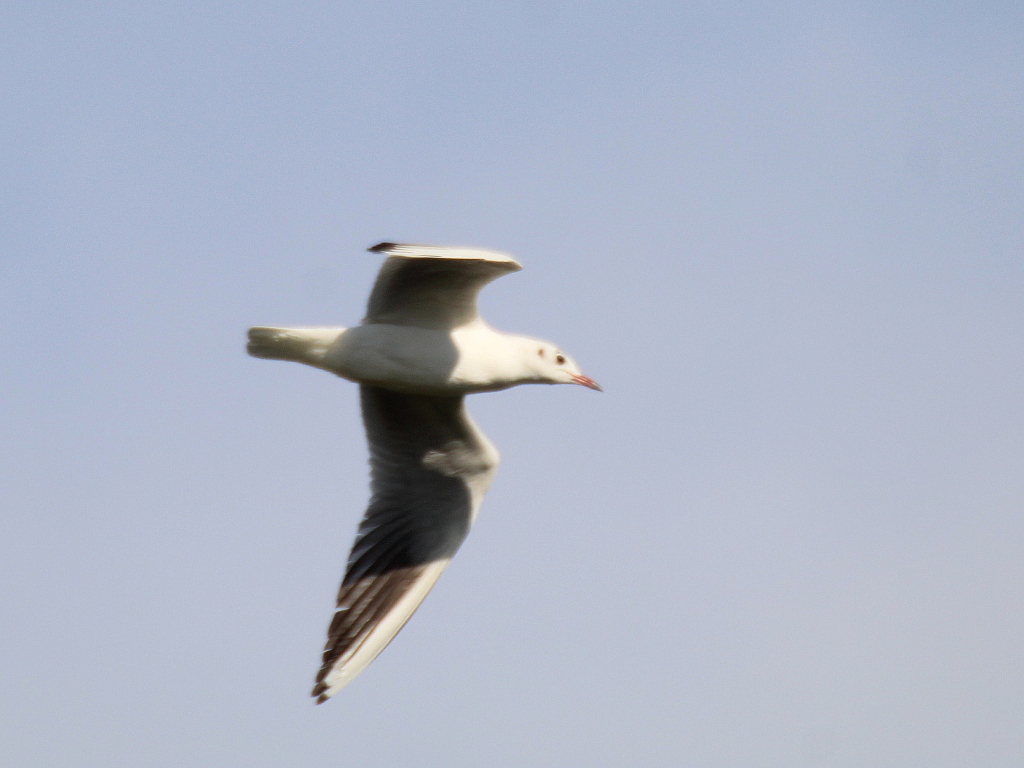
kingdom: Animalia
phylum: Chordata
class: Aves
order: Charadriiformes
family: Laridae
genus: Chroicocephalus
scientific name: Chroicocephalus ridibundus
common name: Black-headed gull
